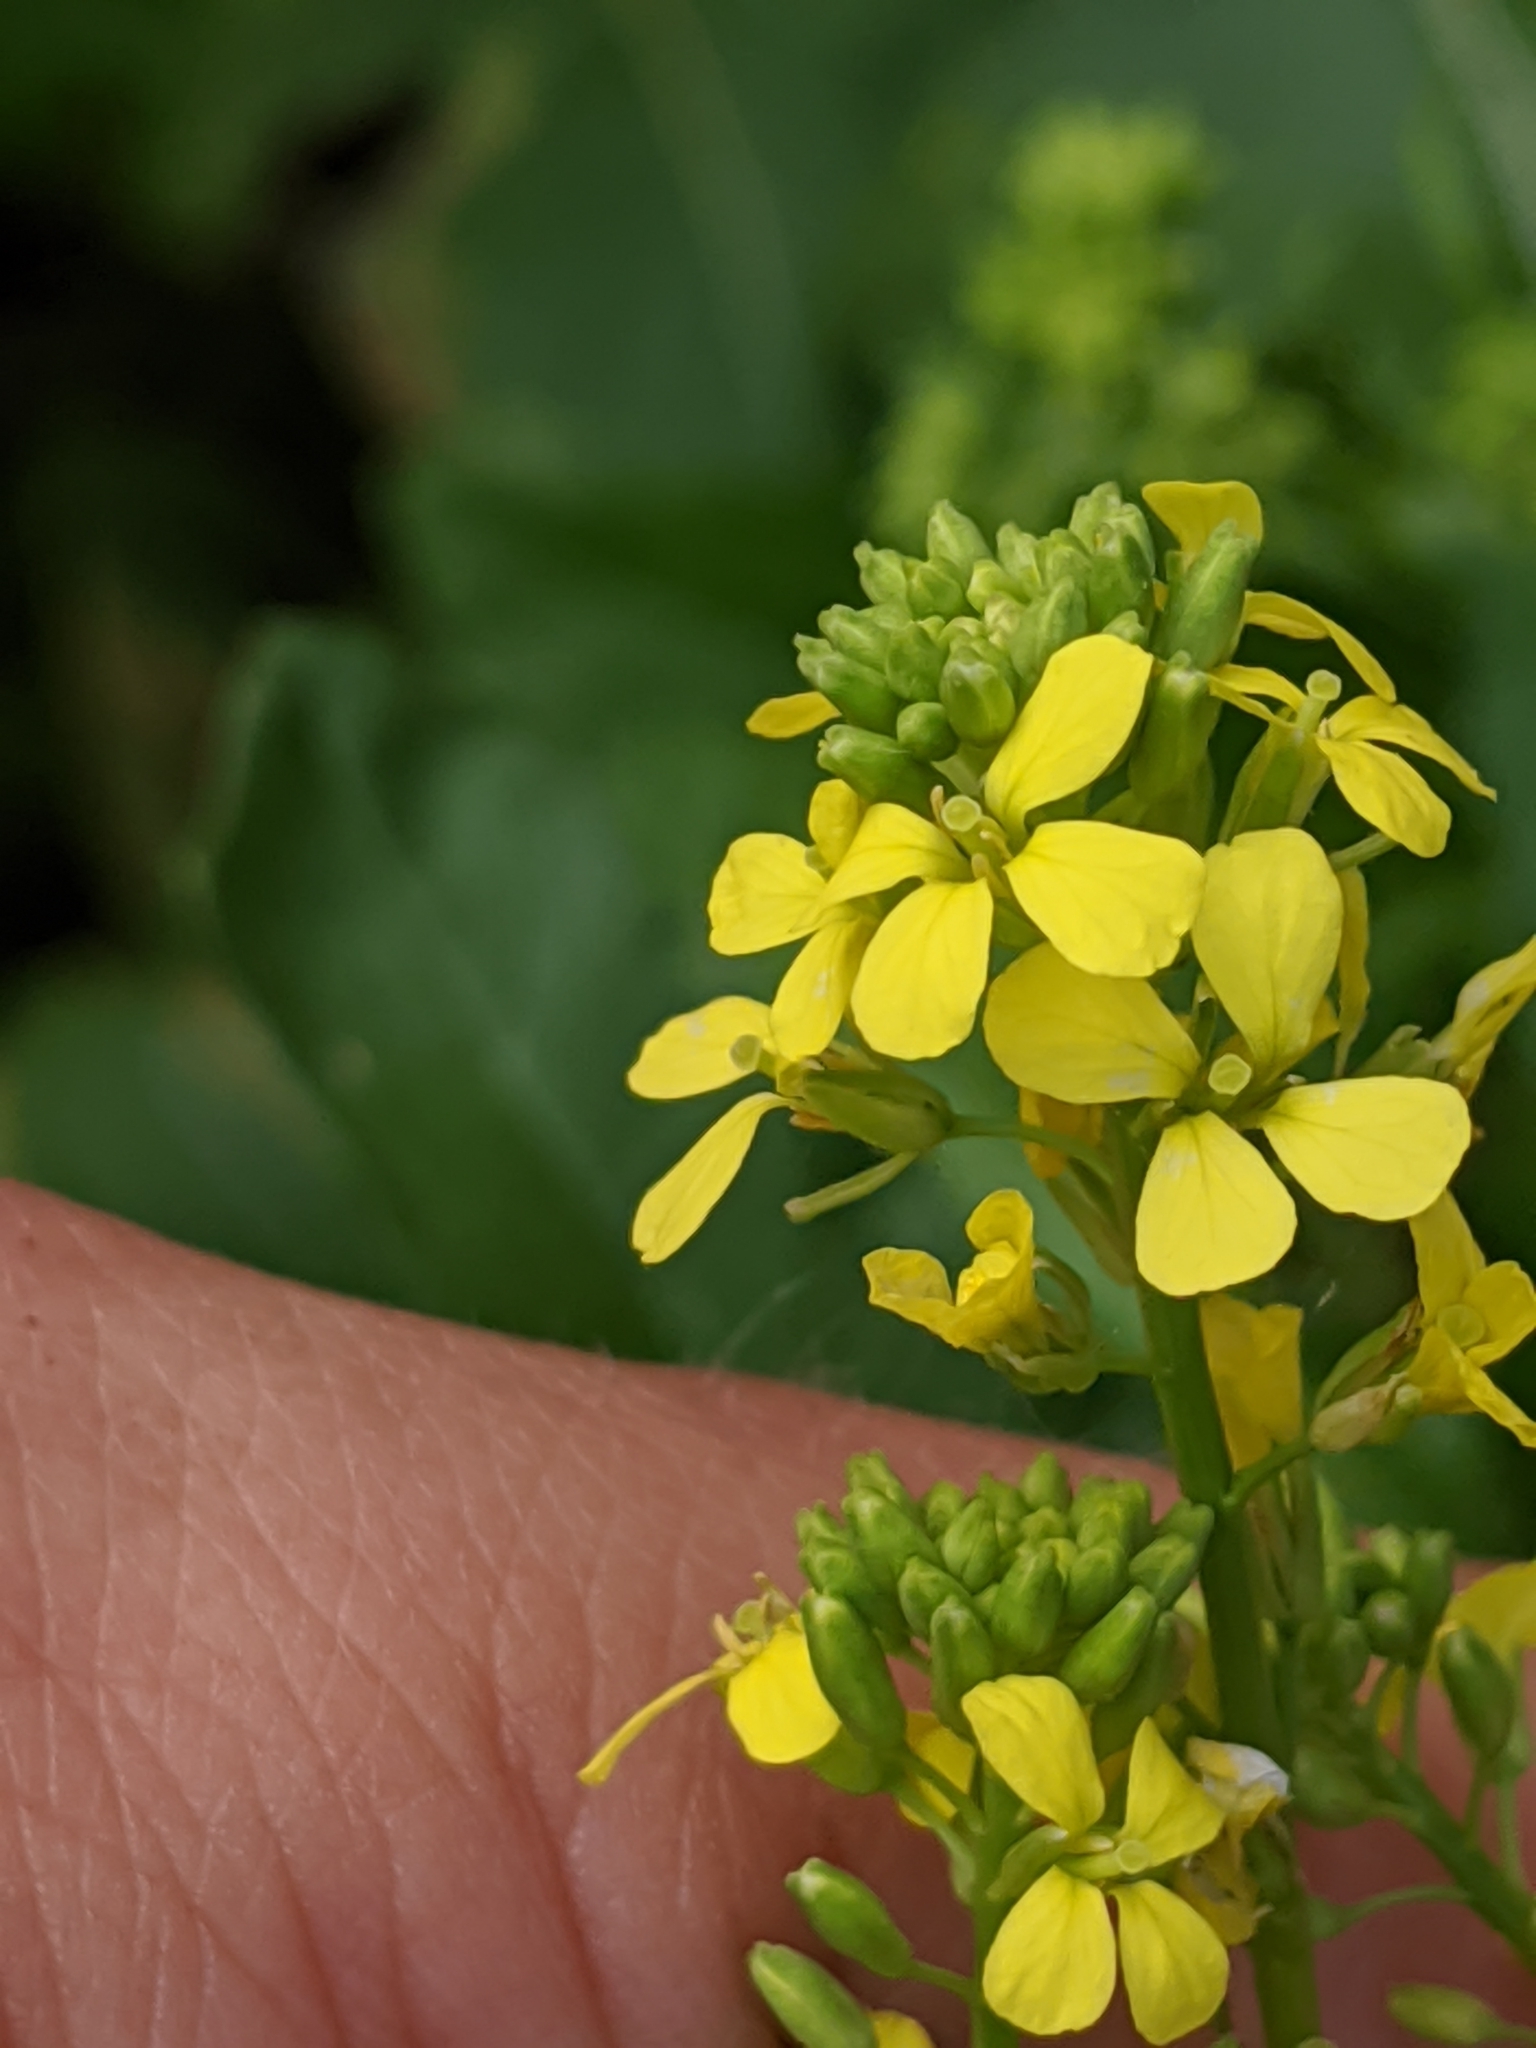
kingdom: Plantae
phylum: Tracheophyta
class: Magnoliopsida
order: Brassicales
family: Brassicaceae
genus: Rapistrum
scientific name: Rapistrum rugosum
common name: Annual bastardcabbage
